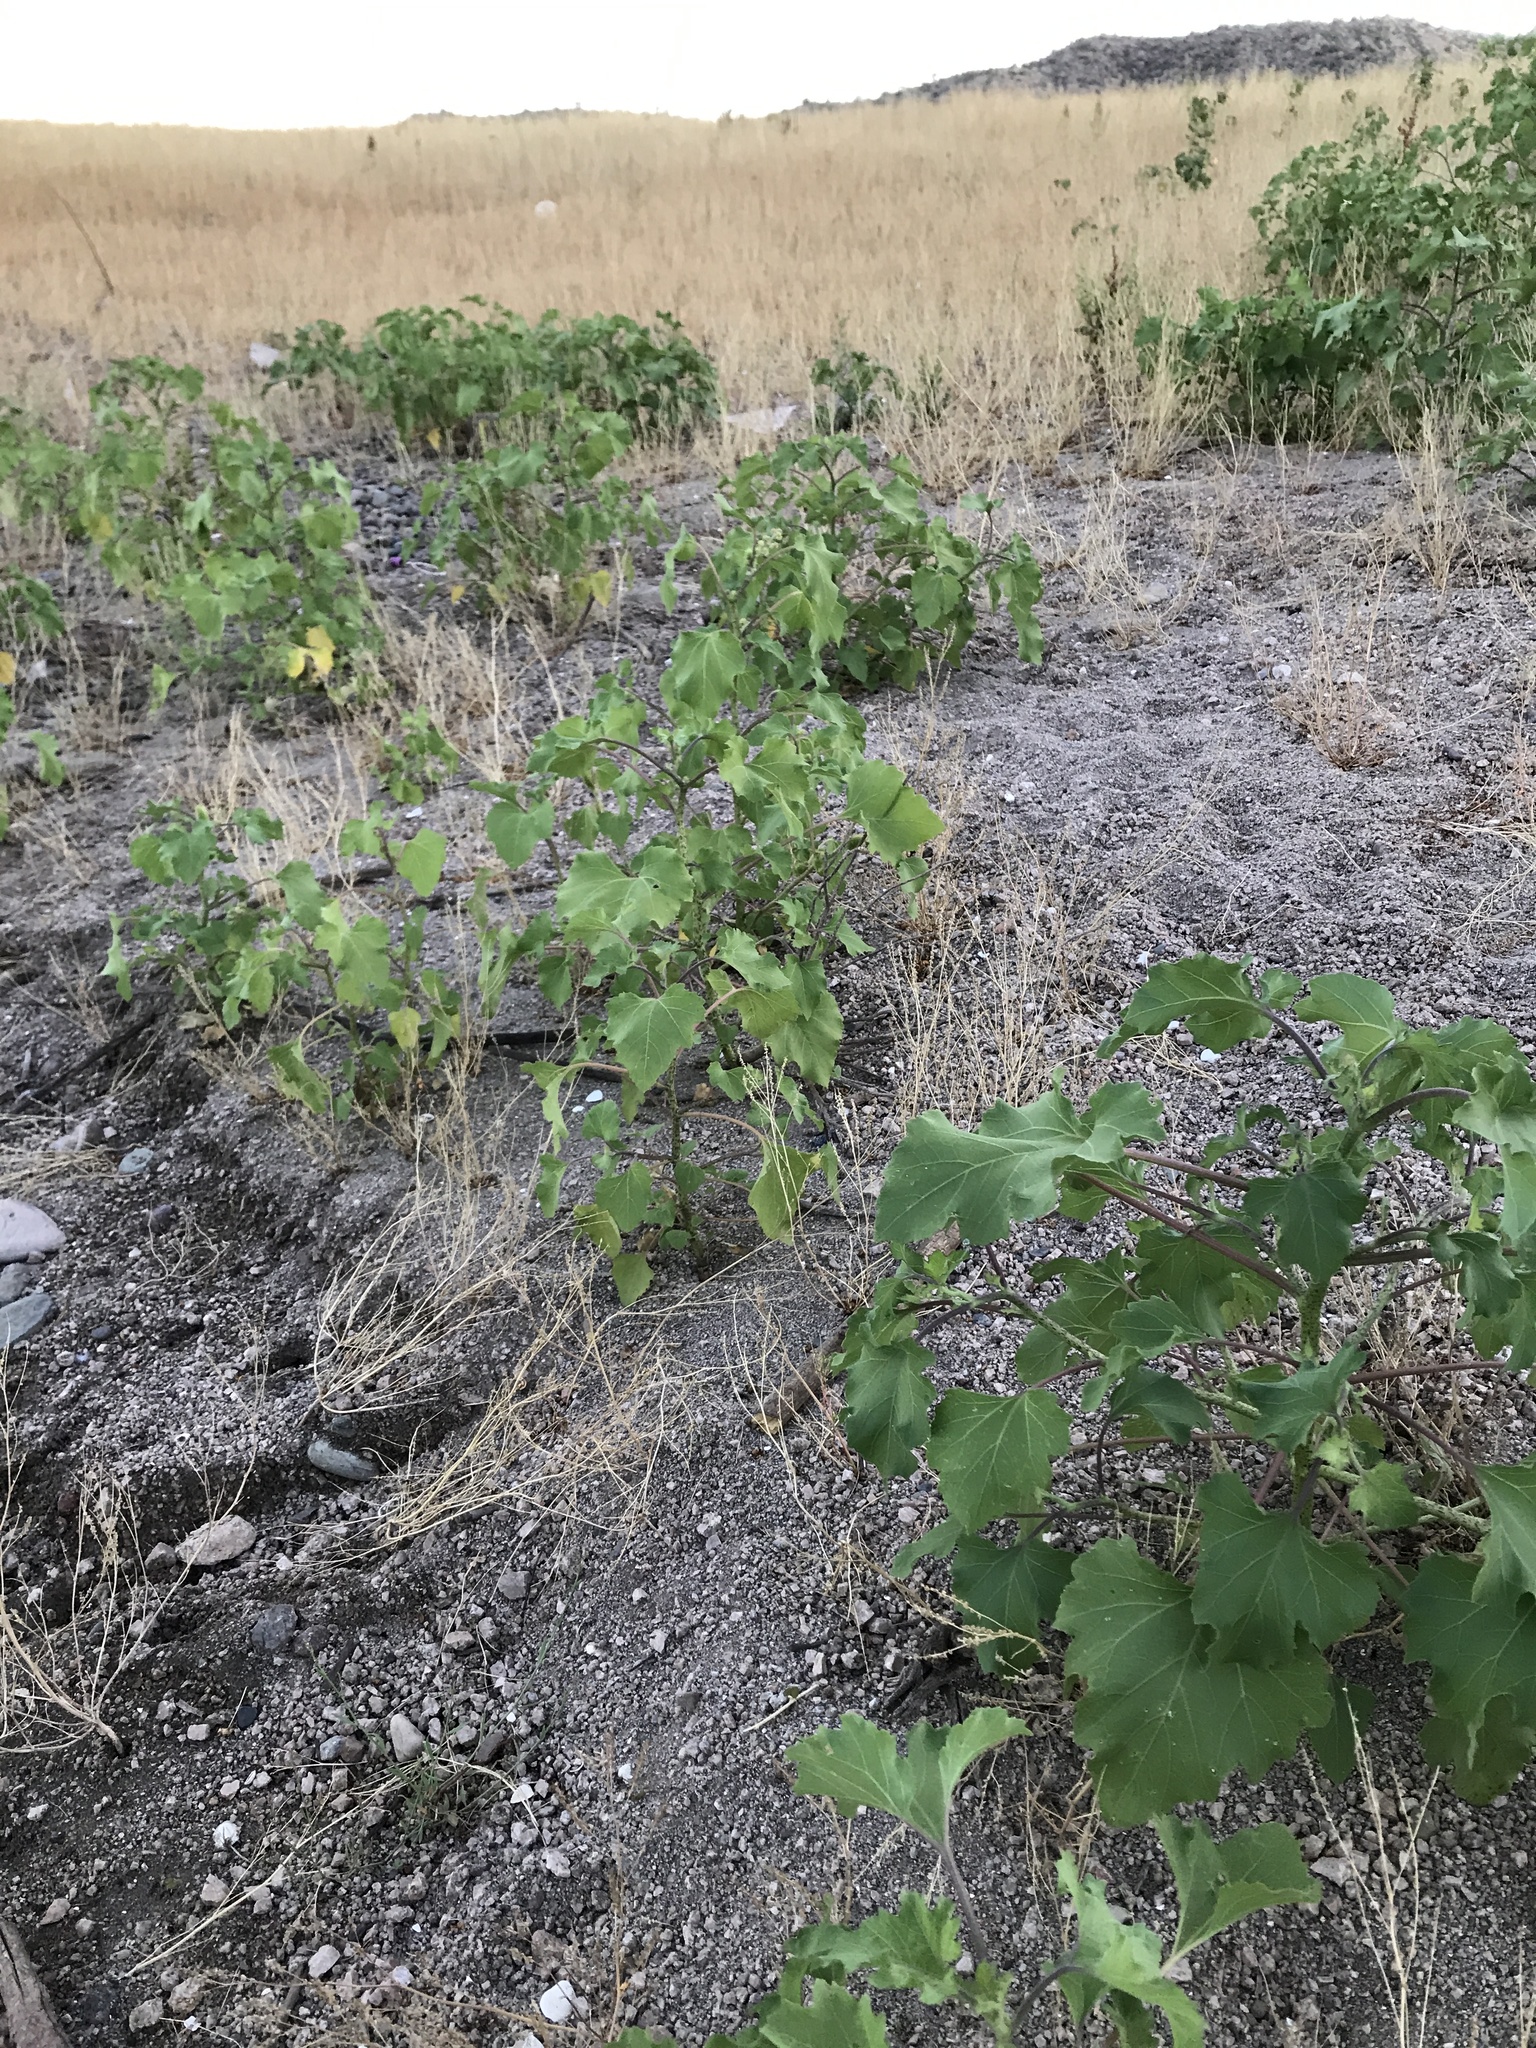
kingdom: Plantae
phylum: Tracheophyta
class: Magnoliopsida
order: Asterales
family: Asteraceae
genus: Xanthium
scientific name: Xanthium strumarium
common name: Rough cocklebur
